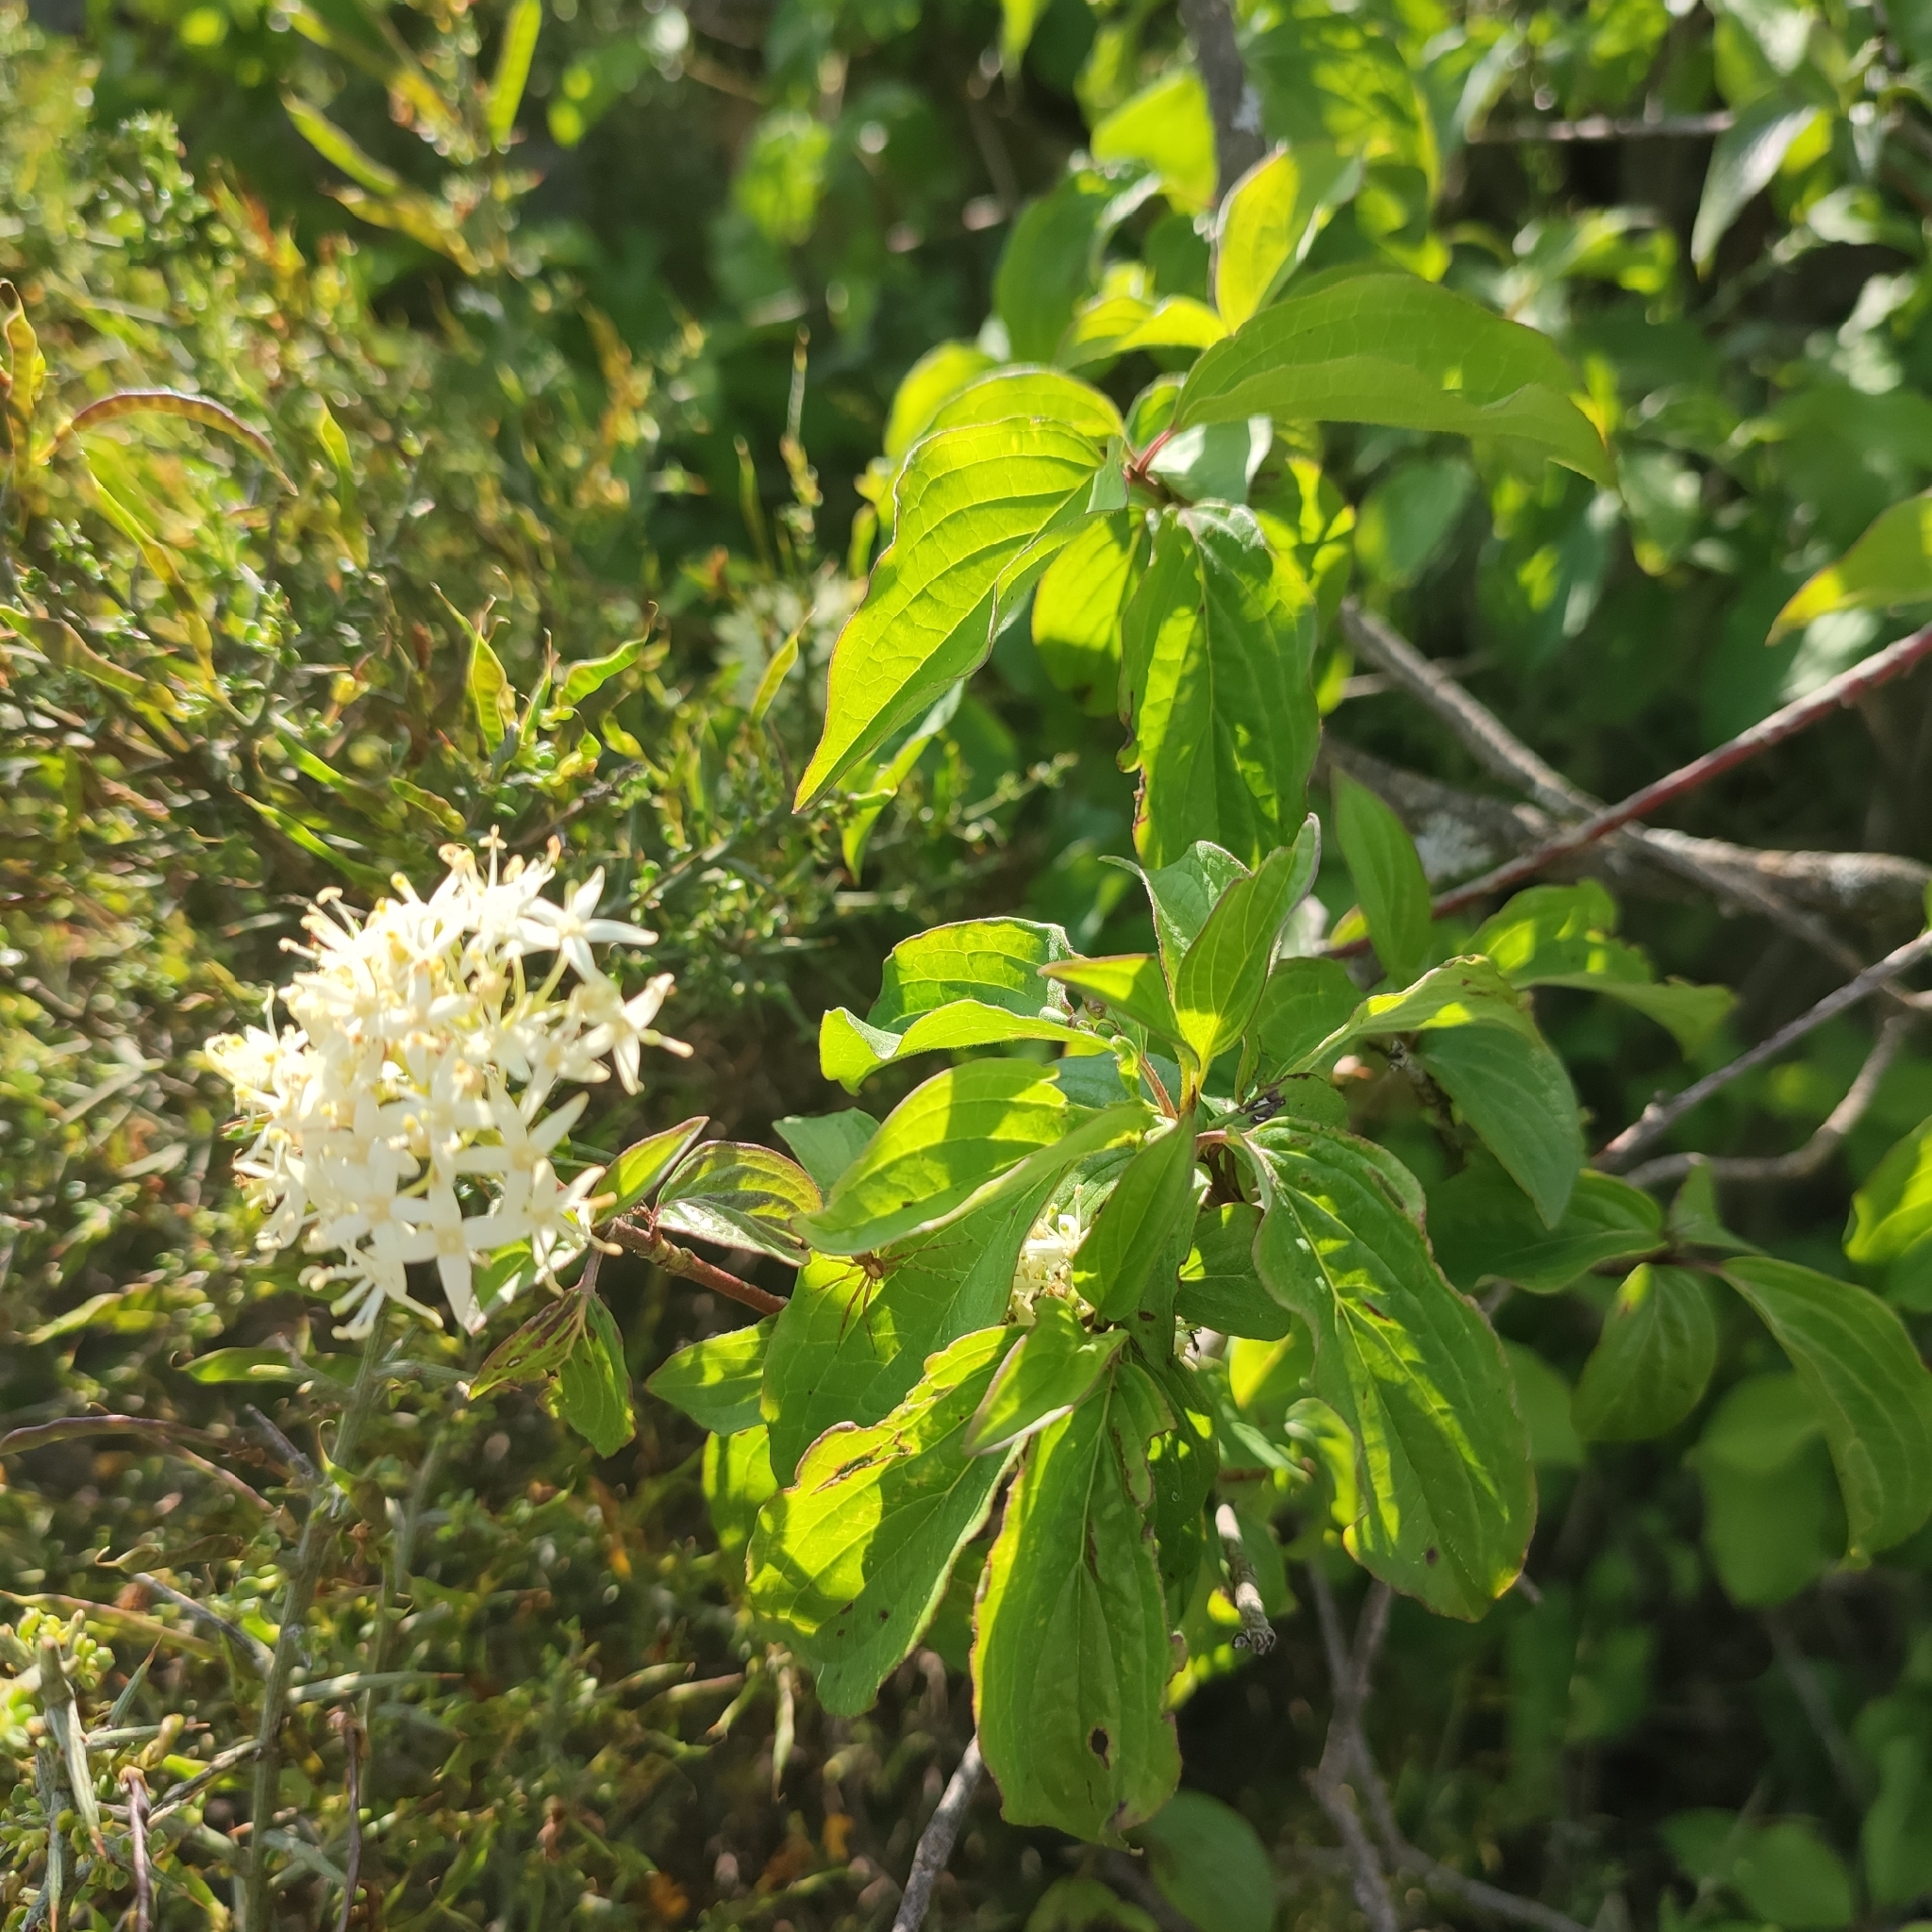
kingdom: Plantae
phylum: Tracheophyta
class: Magnoliopsida
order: Cornales
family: Cornaceae
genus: Cornus
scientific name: Cornus sanguinea
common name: Dogwood
